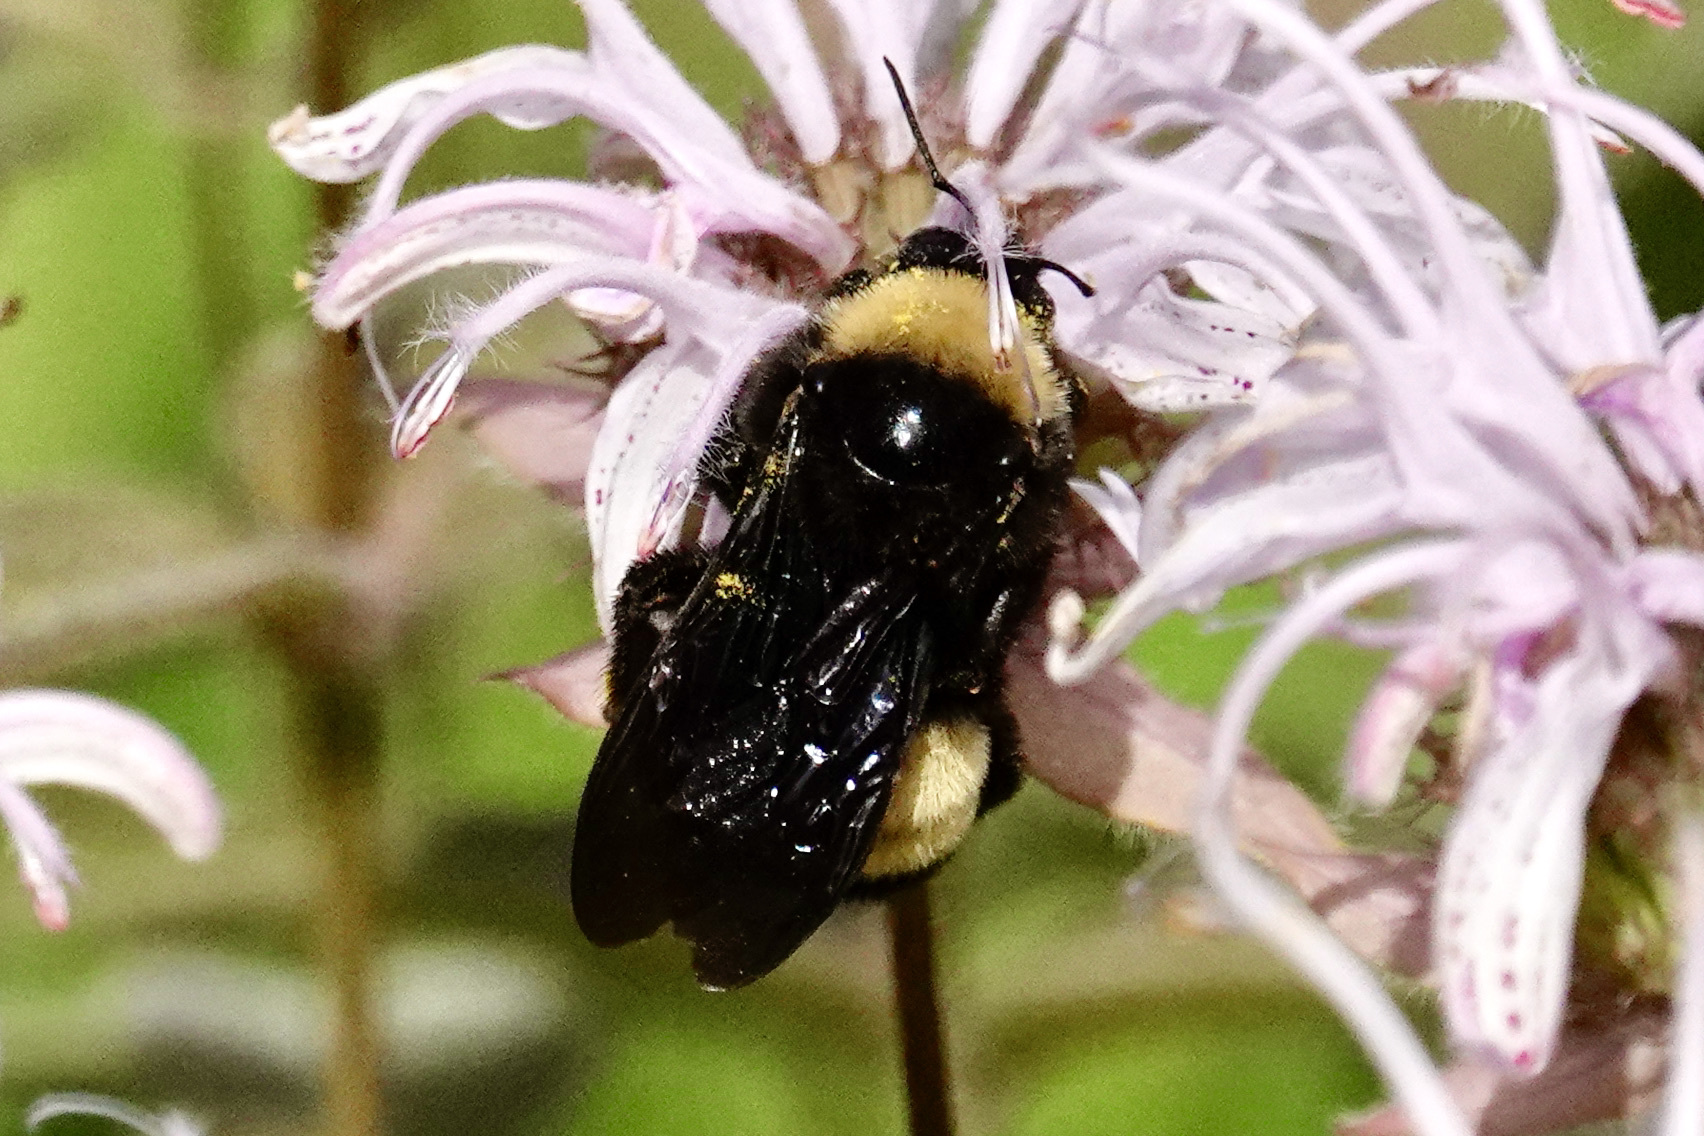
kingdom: Animalia
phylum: Arthropoda
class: Insecta
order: Hymenoptera
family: Apidae
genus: Bombus
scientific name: Bombus pensylvanicus
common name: Bumble bee
